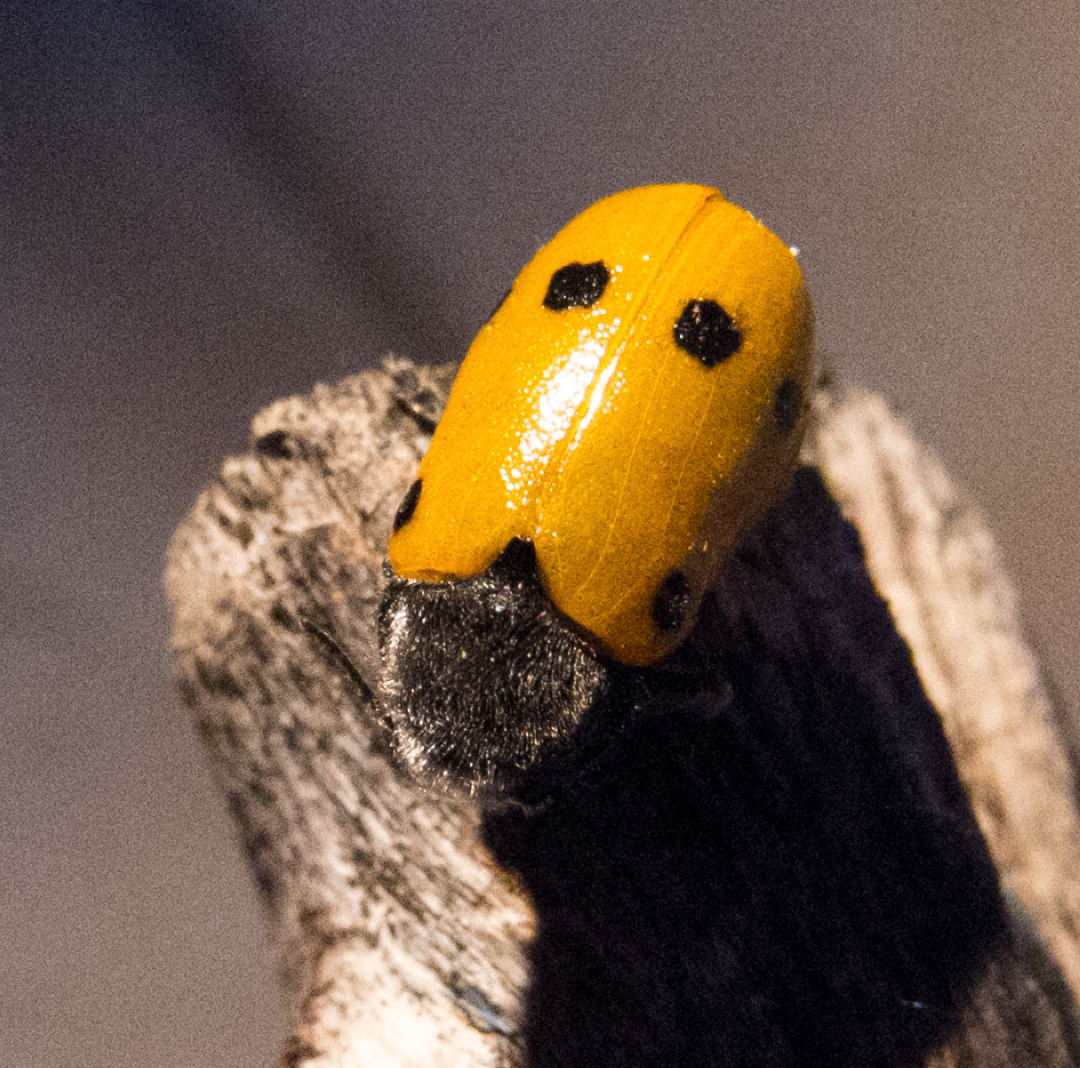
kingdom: Animalia
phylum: Arthropoda
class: Insecta
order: Coleoptera
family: Chrysomelidae
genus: Lachnaia
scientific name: Lachnaia sexpunctata
